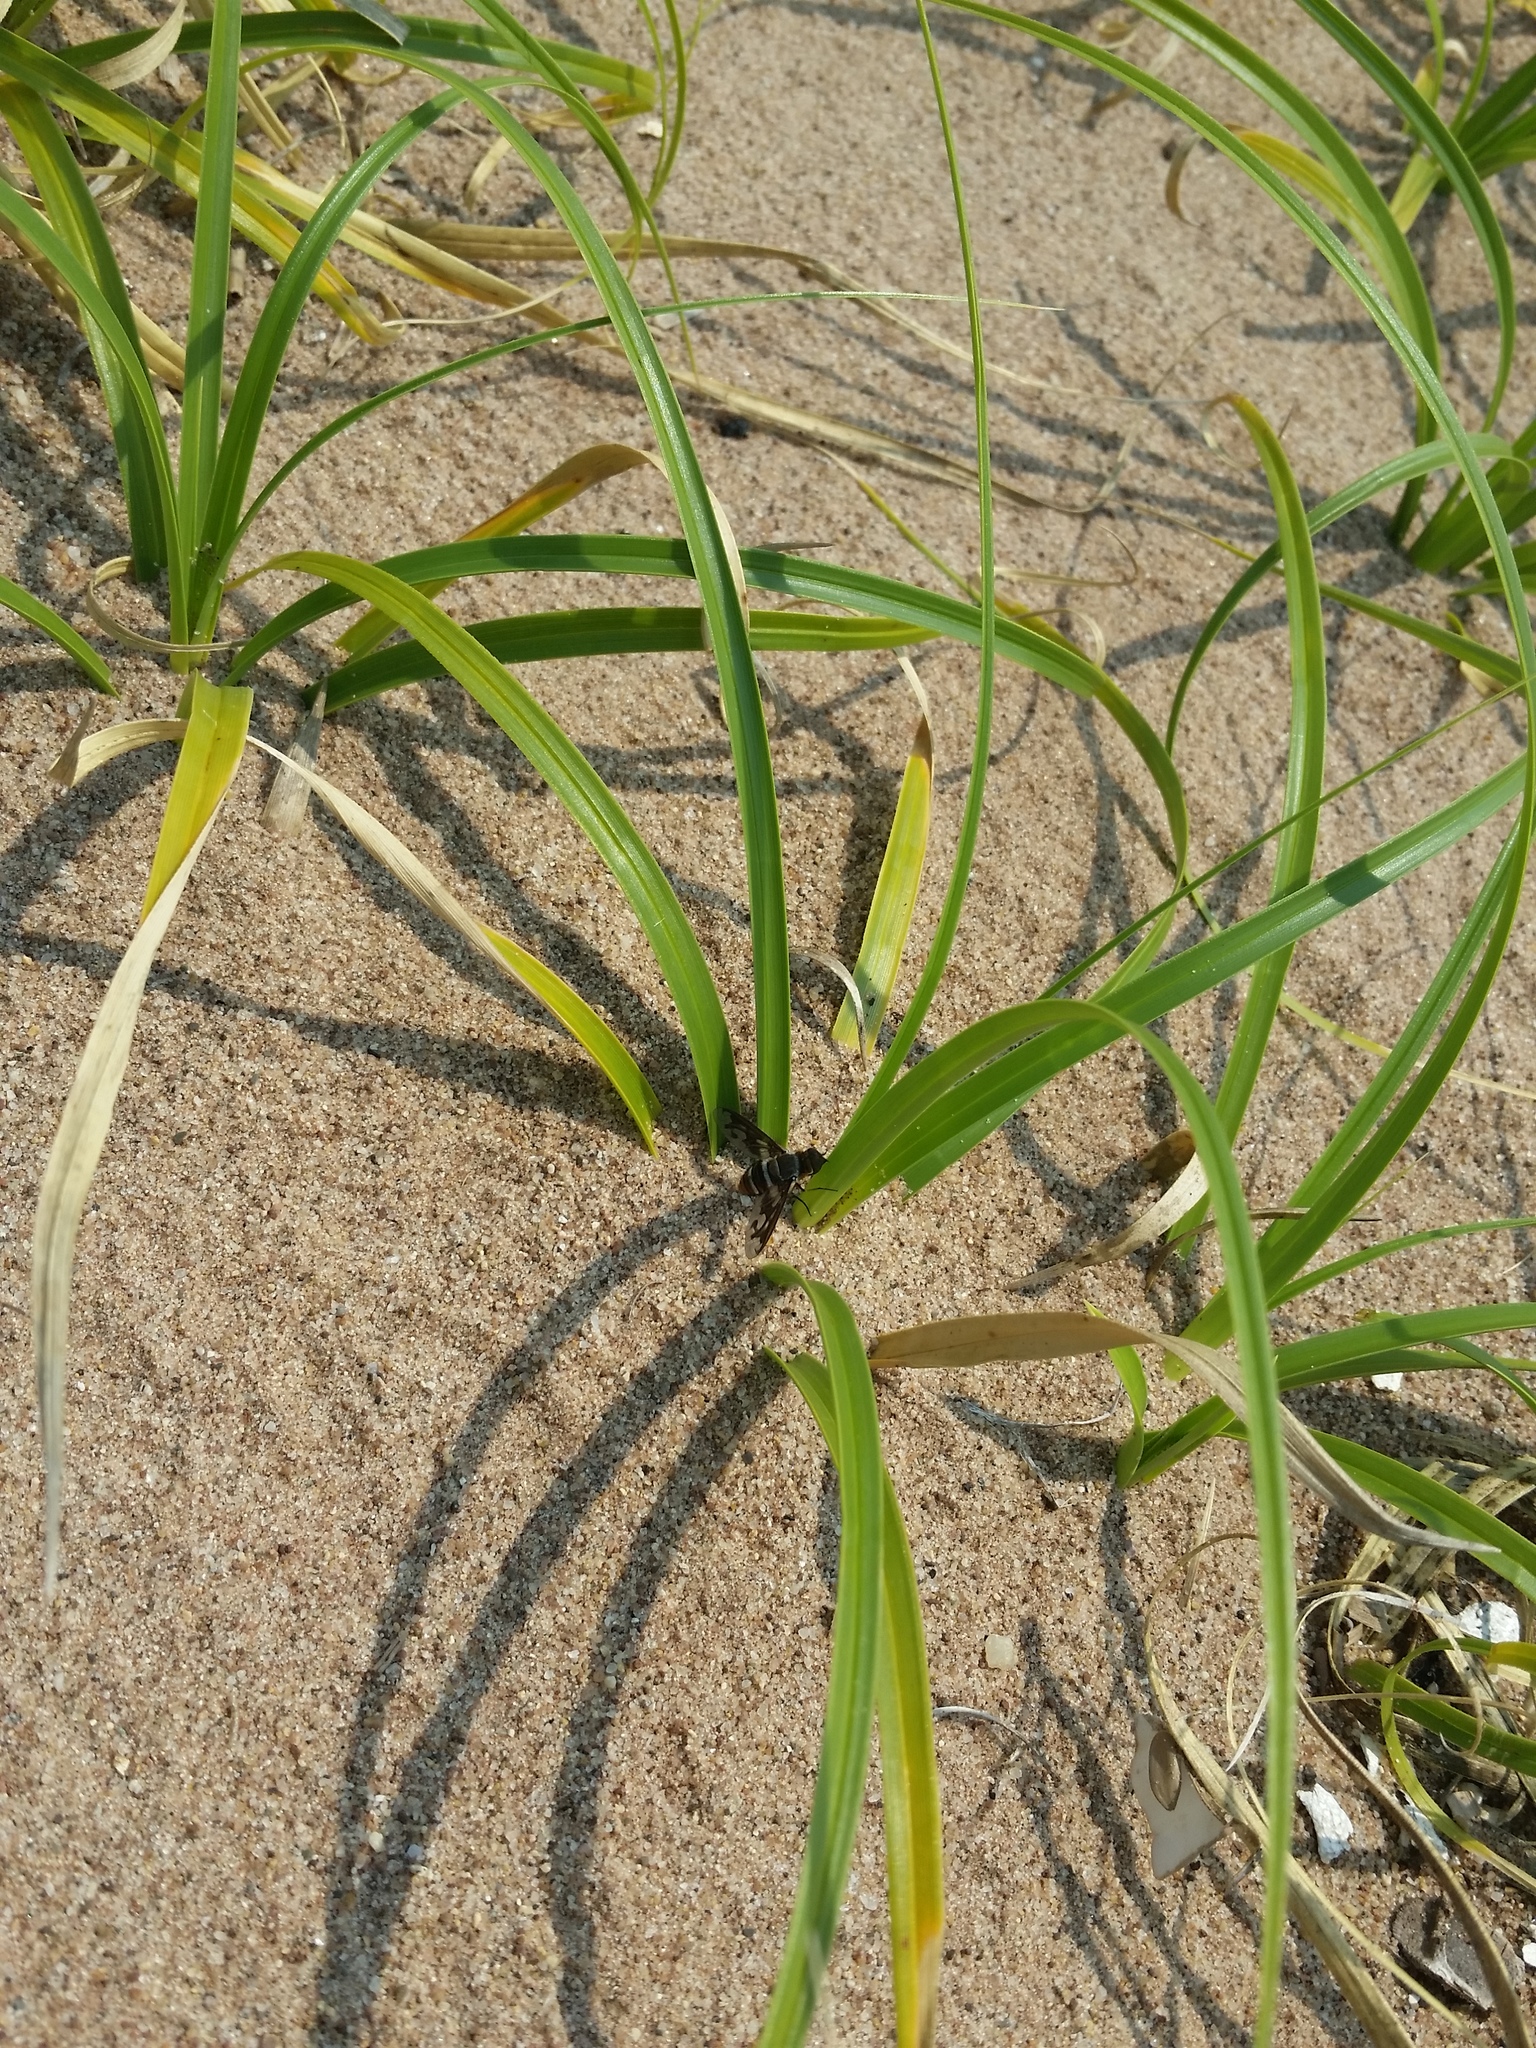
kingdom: Plantae
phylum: Tracheophyta
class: Liliopsida
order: Poales
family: Cyperaceae
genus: Carex
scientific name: Carex kobomugi
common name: Japanese sedge
